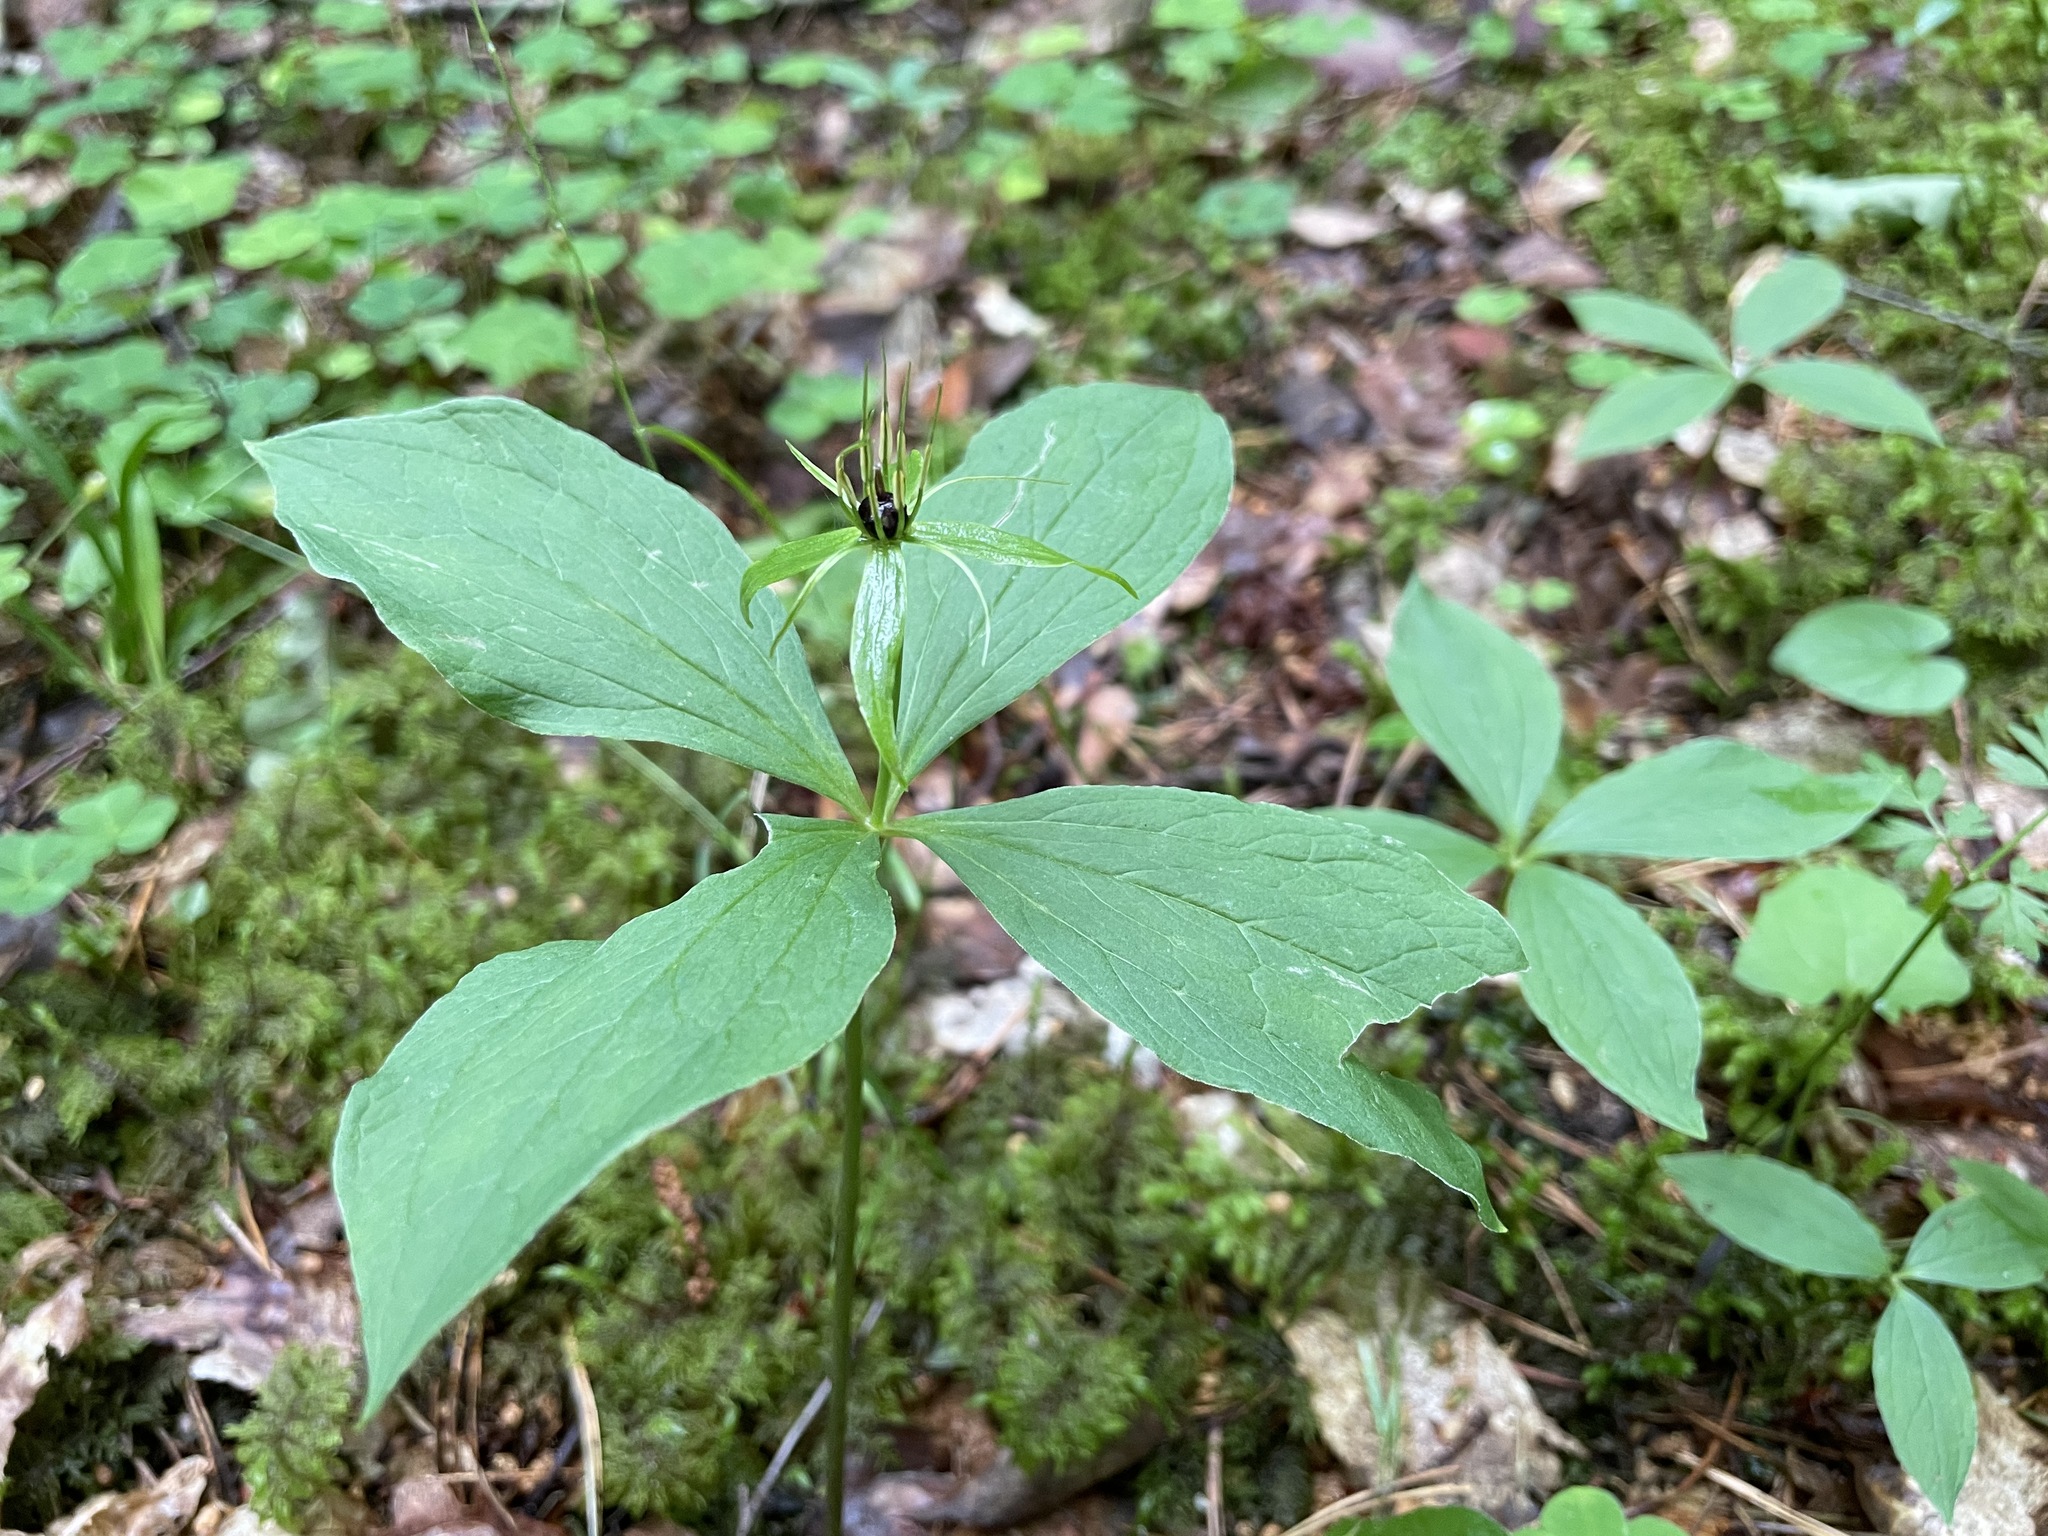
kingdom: Plantae
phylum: Tracheophyta
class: Liliopsida
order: Liliales
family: Melanthiaceae
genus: Paris
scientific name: Paris quadrifolia
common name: Herb-paris
